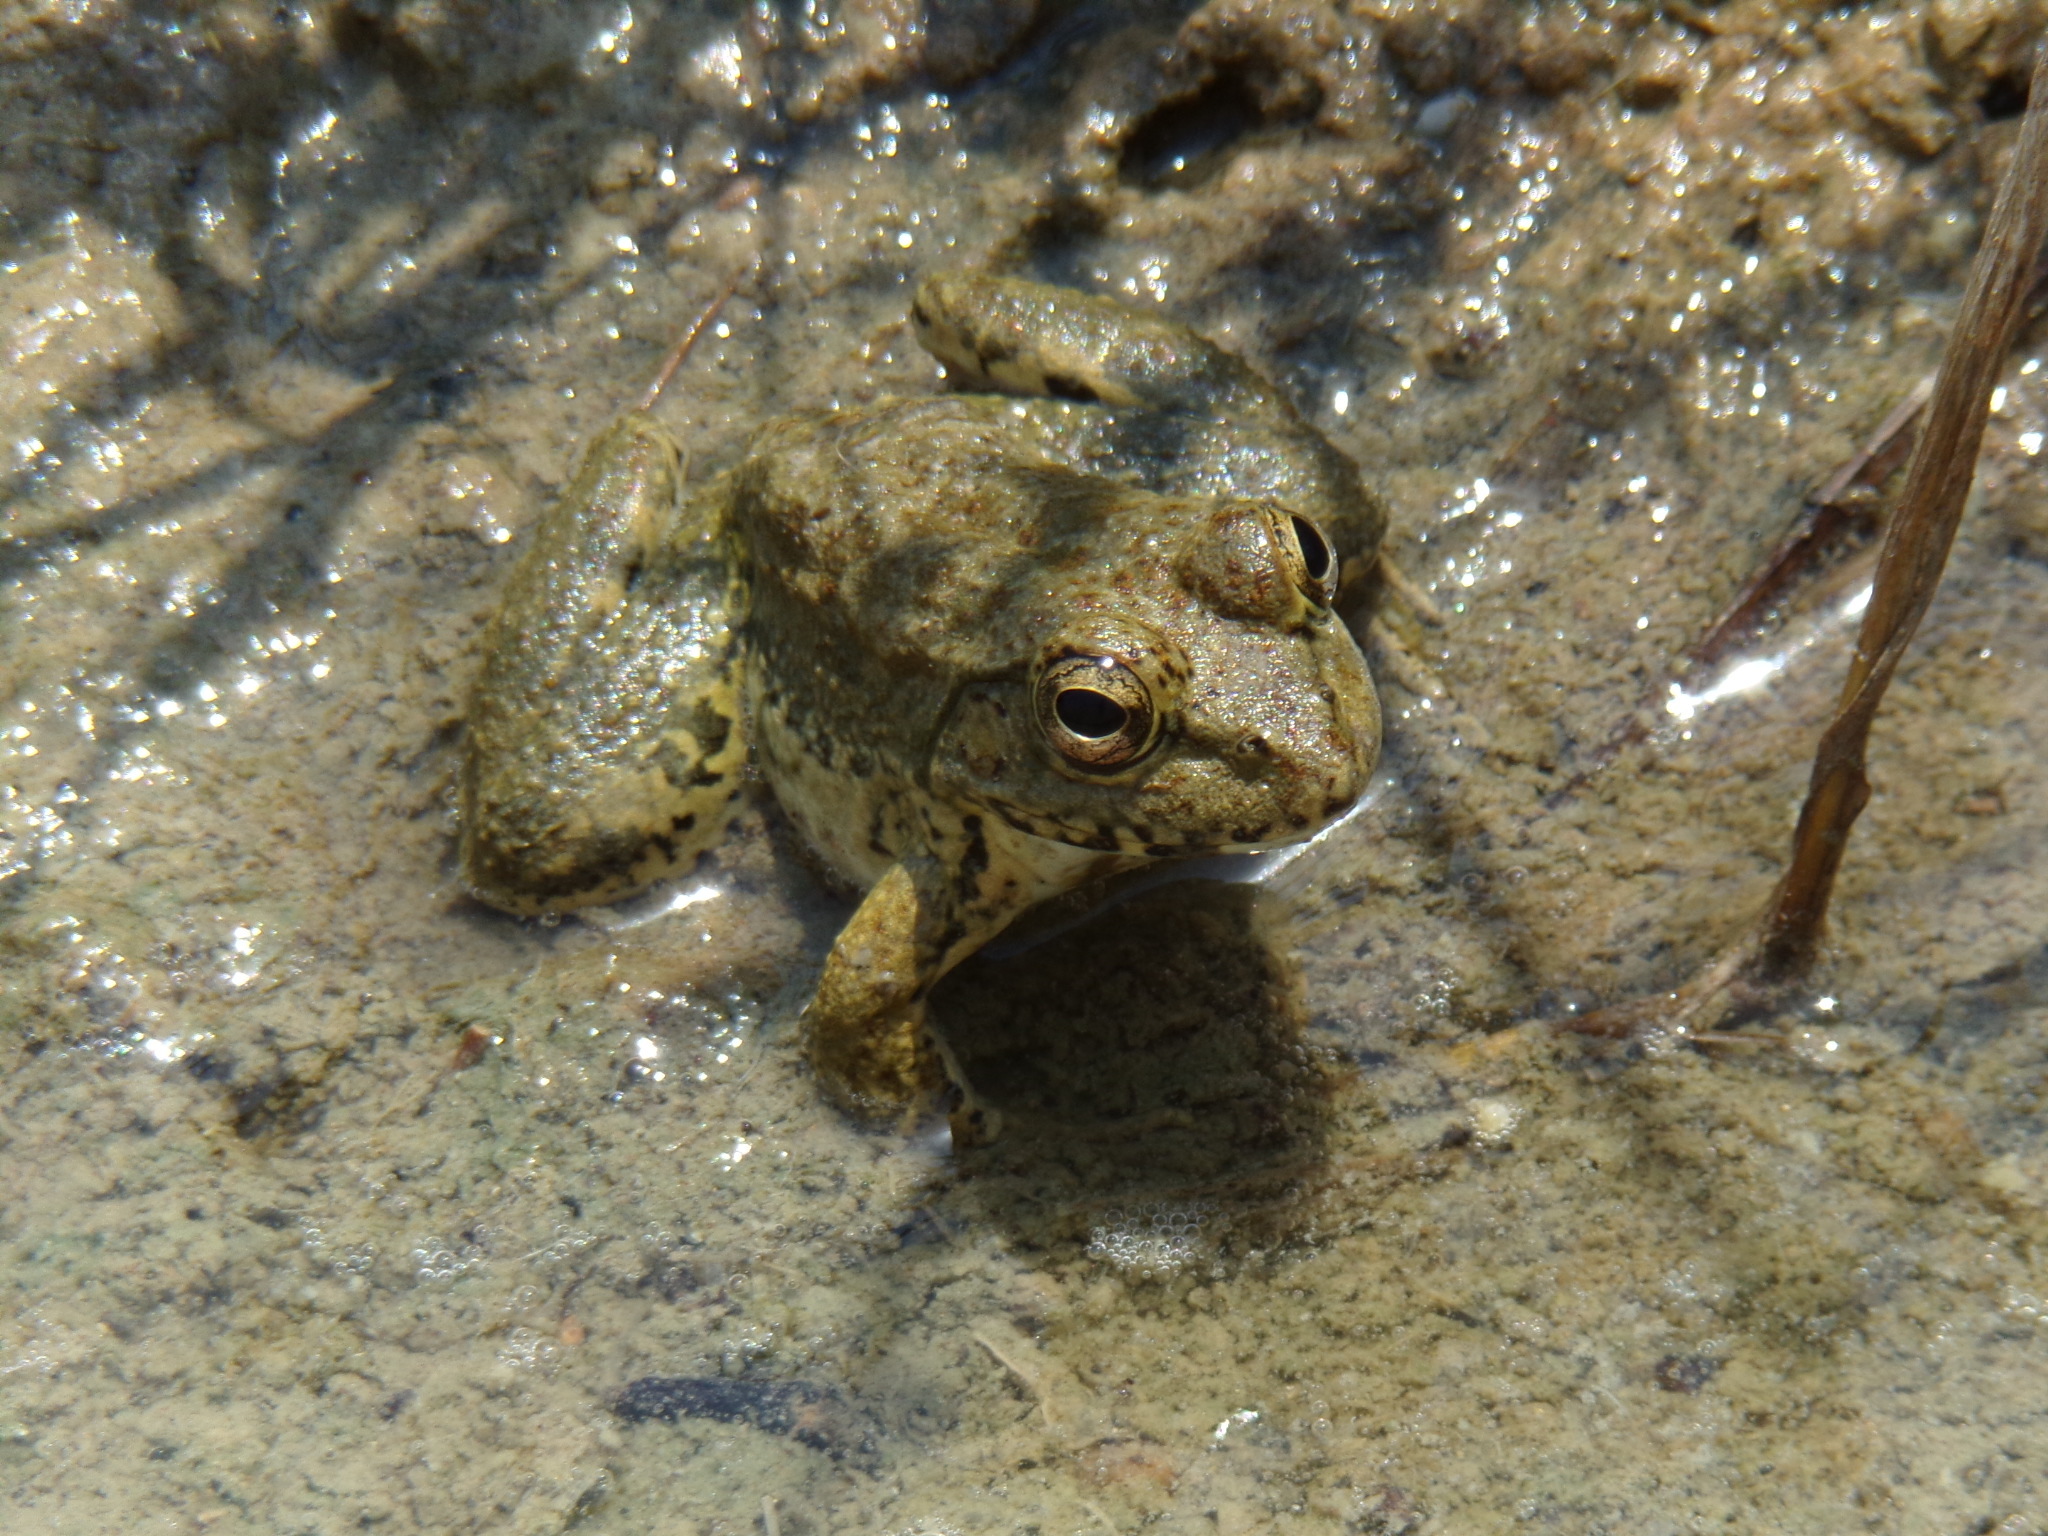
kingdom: Animalia
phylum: Chordata
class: Amphibia
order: Anura
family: Ranidae
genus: Pelophylax
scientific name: Pelophylax ridibundus
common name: Marsh frog
